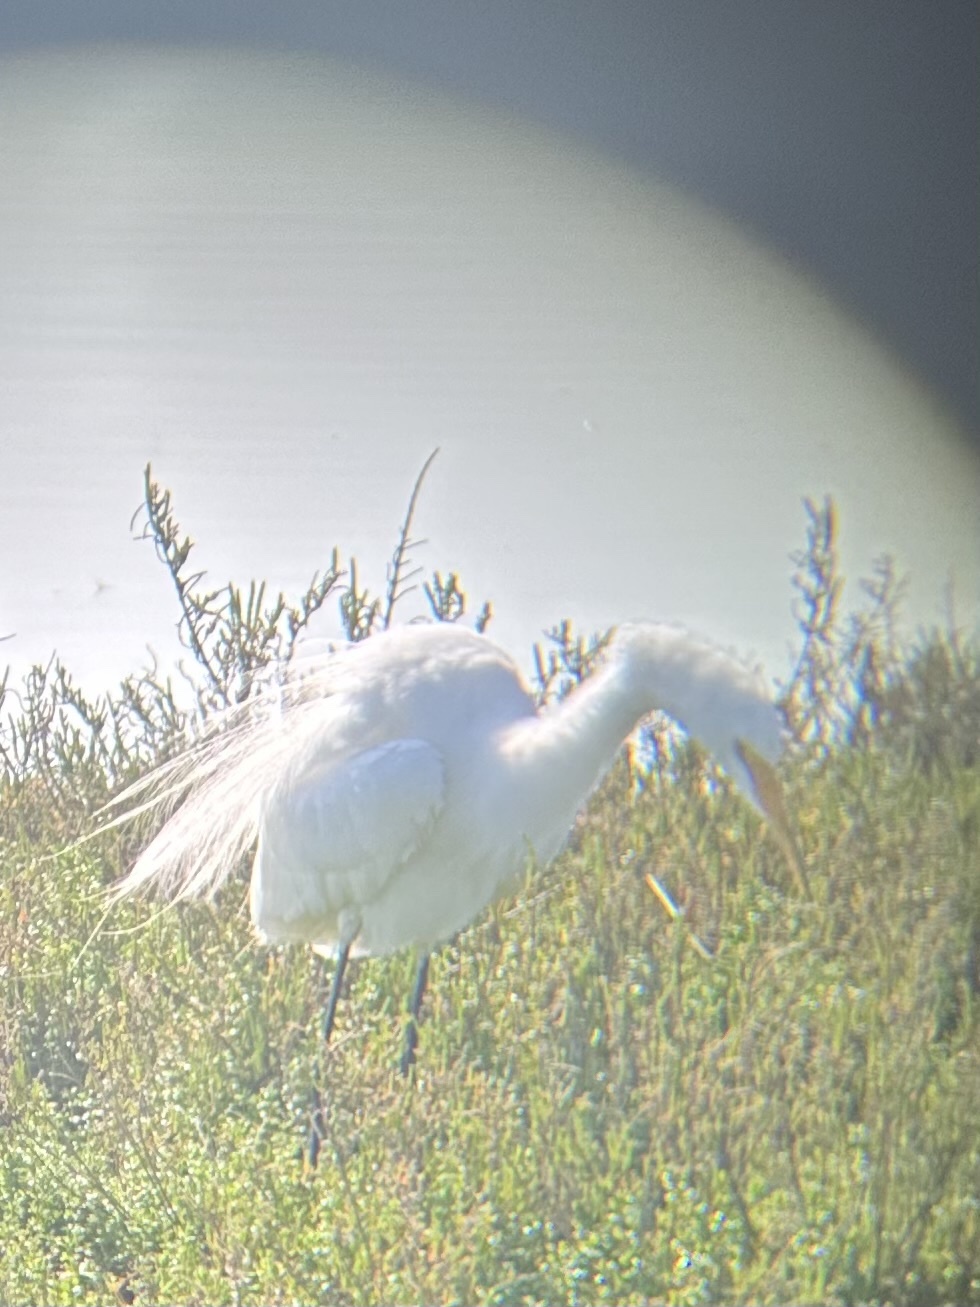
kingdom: Animalia
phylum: Chordata
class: Aves
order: Pelecaniformes
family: Ardeidae
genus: Ardea
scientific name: Ardea alba
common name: Great egret
